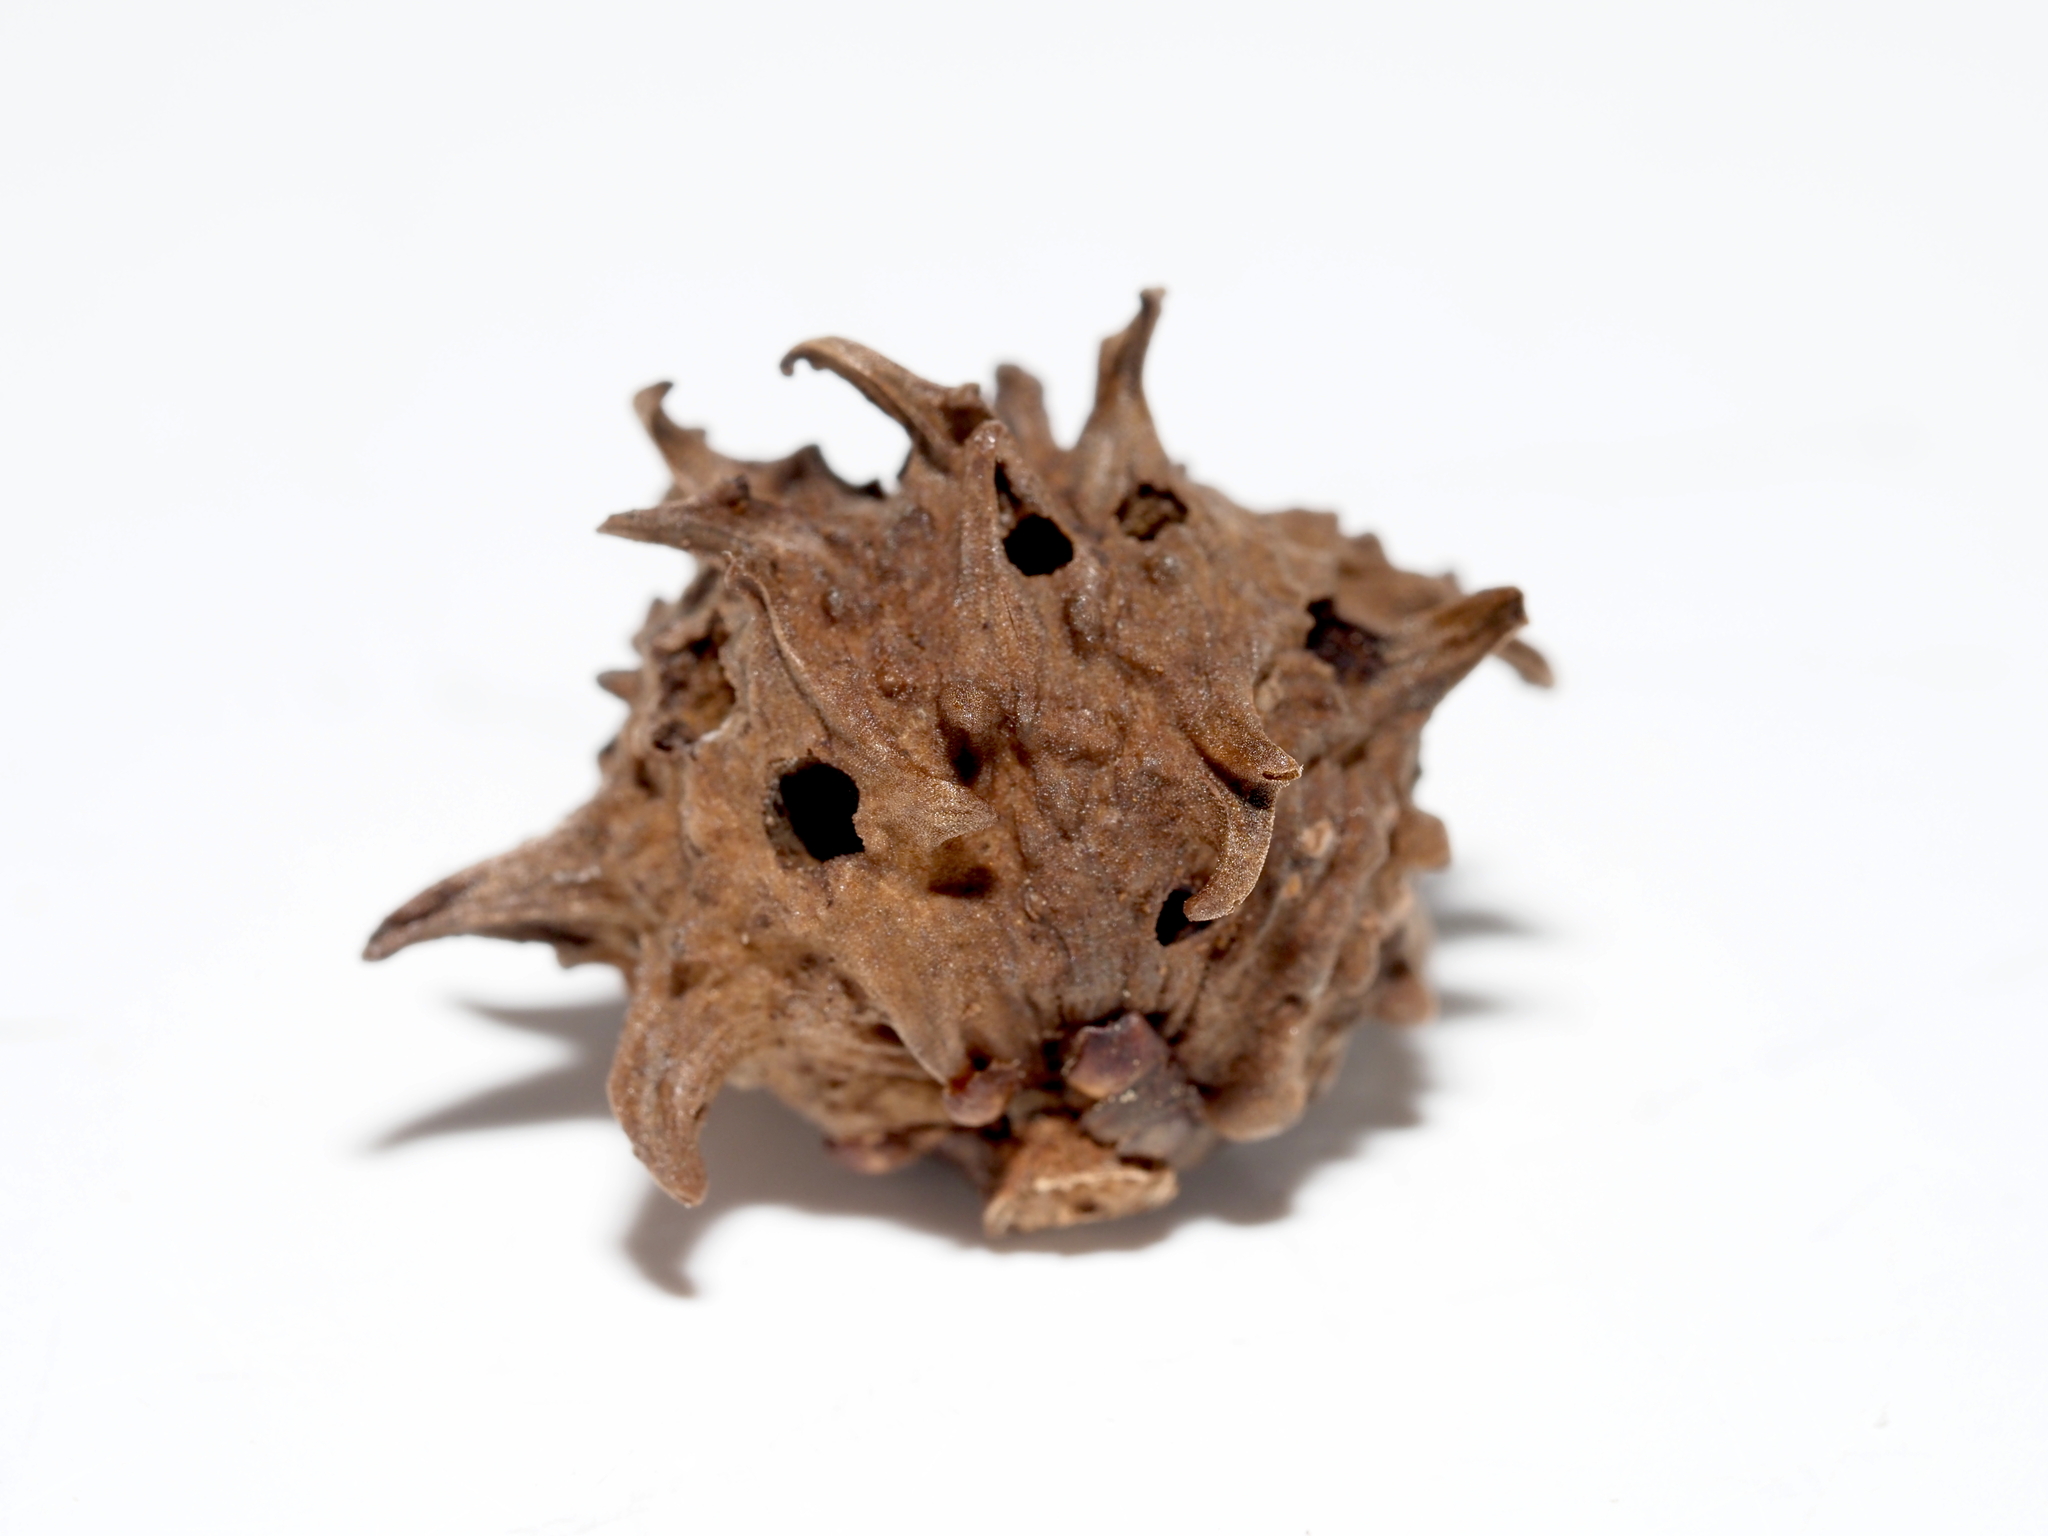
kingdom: Animalia
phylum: Arthropoda
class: Insecta
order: Hymenoptera
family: Cynipidae
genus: Andricus
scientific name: Andricus
